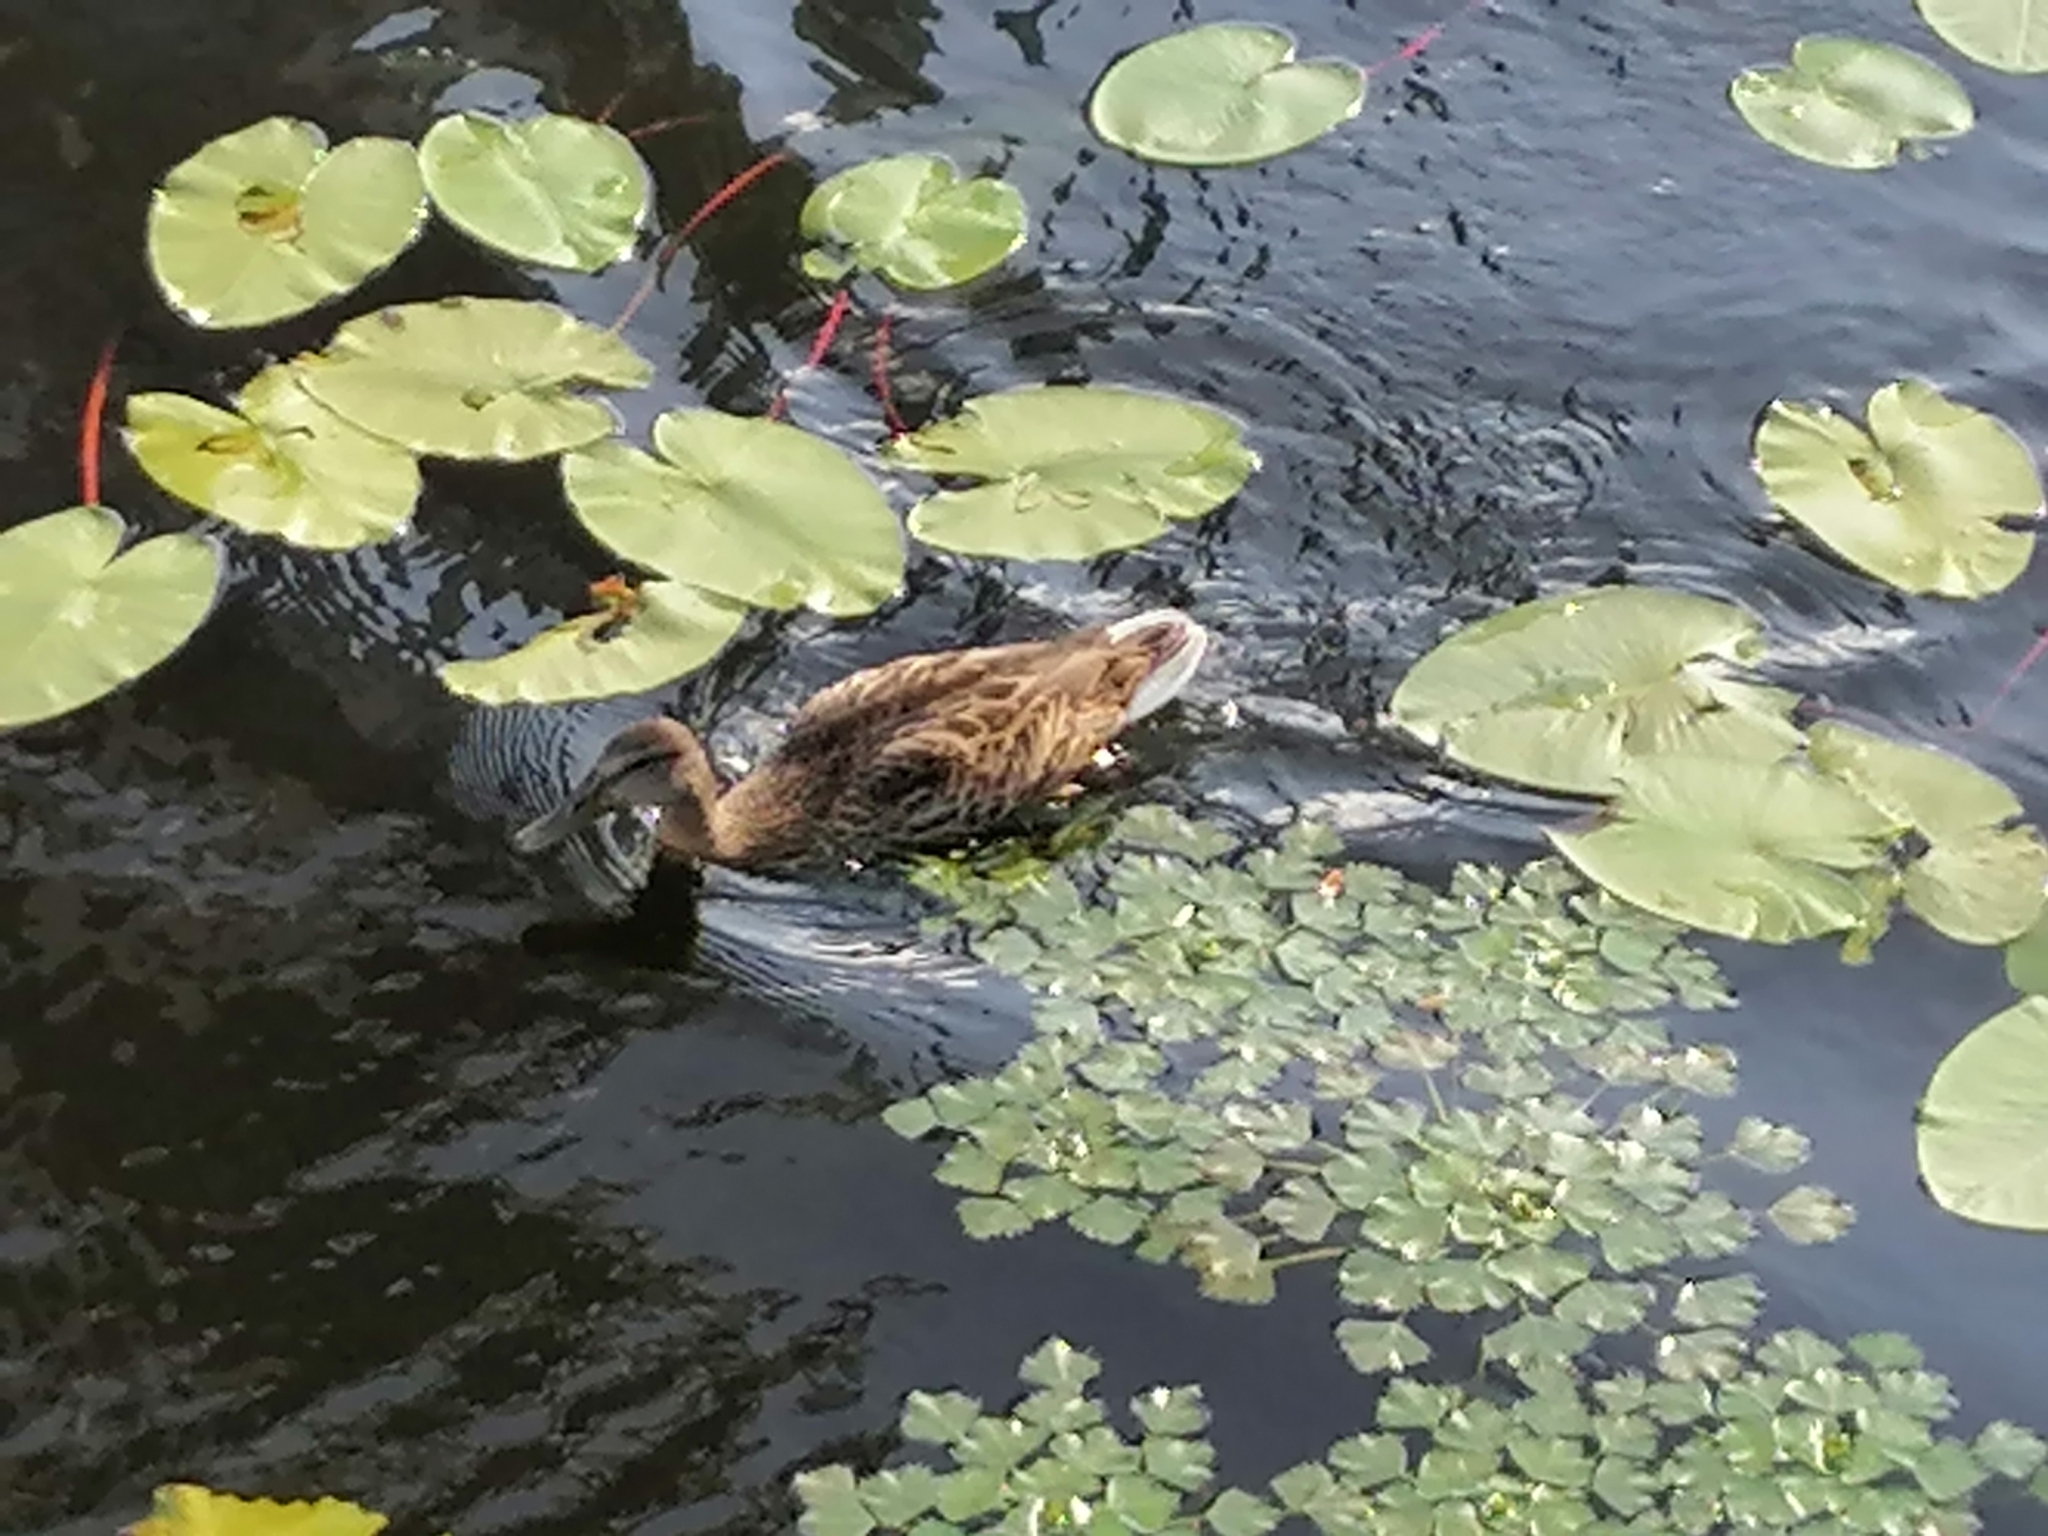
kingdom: Animalia
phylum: Chordata
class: Aves
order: Anseriformes
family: Anatidae
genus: Anas
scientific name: Anas platyrhynchos
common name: Mallard
